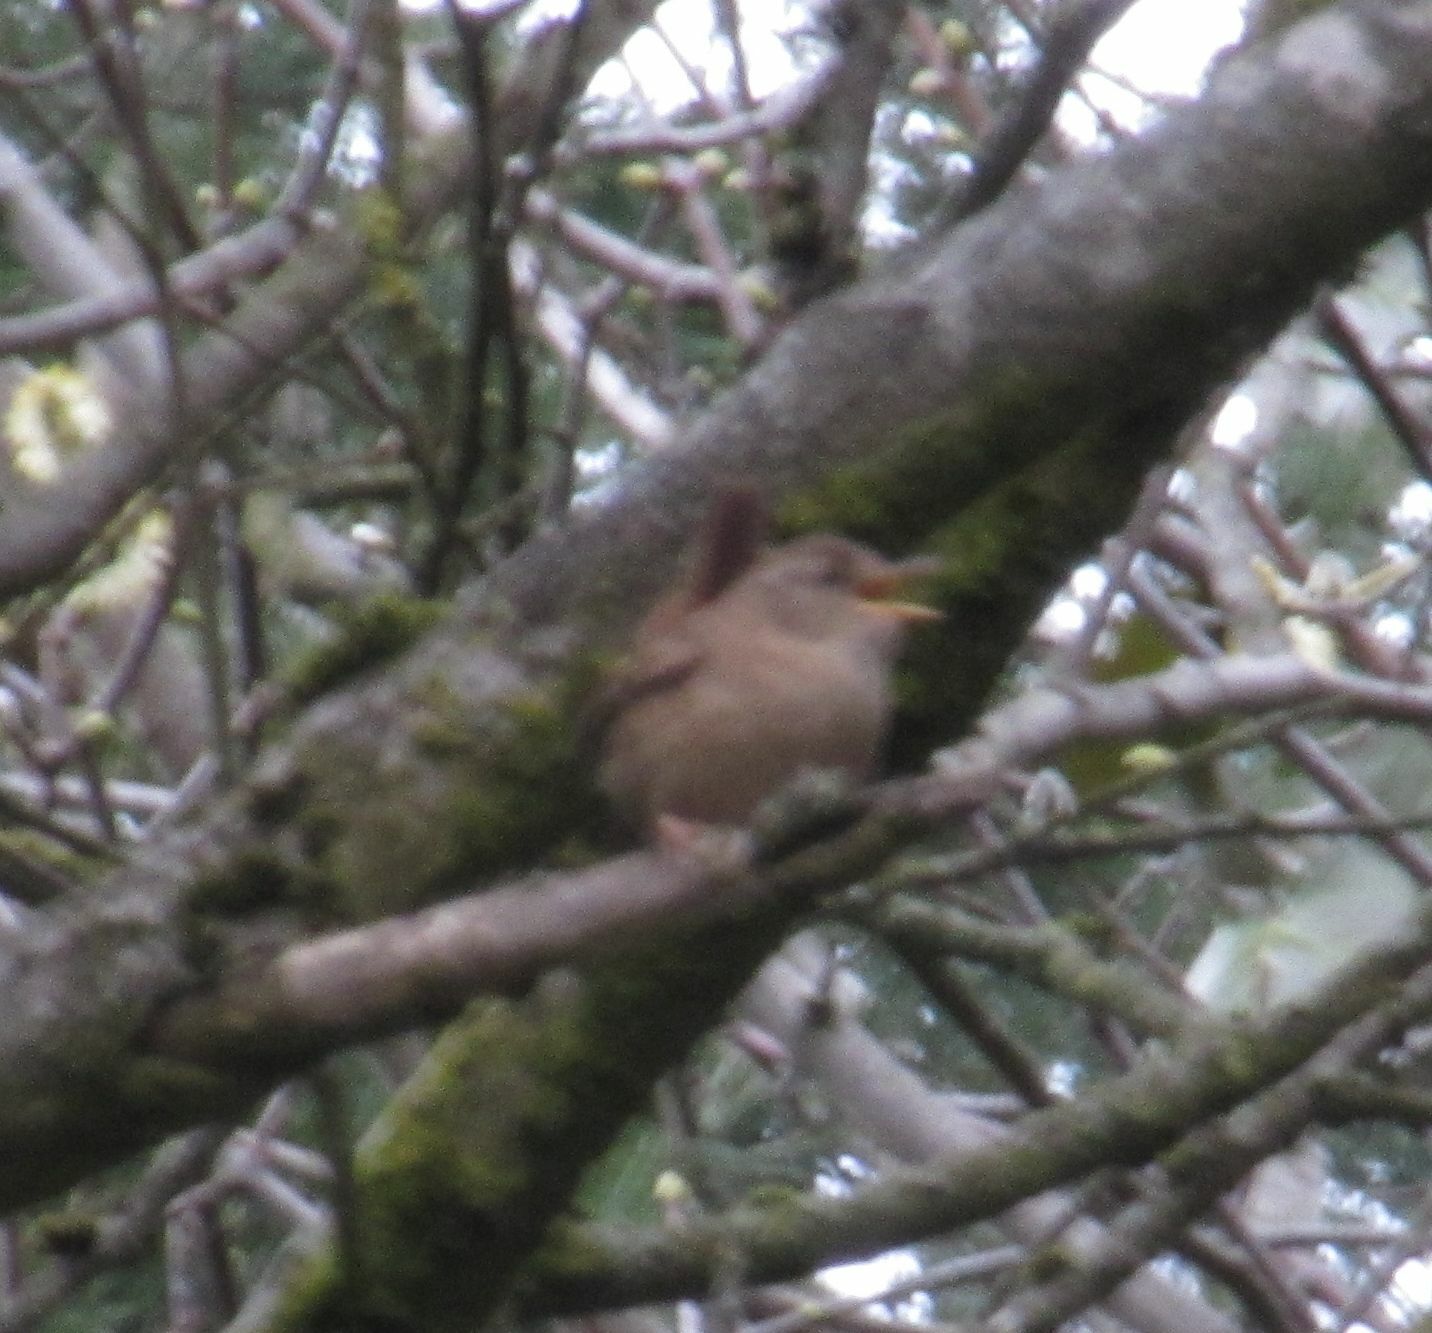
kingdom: Animalia
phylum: Chordata
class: Aves
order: Passeriformes
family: Troglodytidae
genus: Troglodytes
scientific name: Troglodytes troglodytes
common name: Eurasian wren
